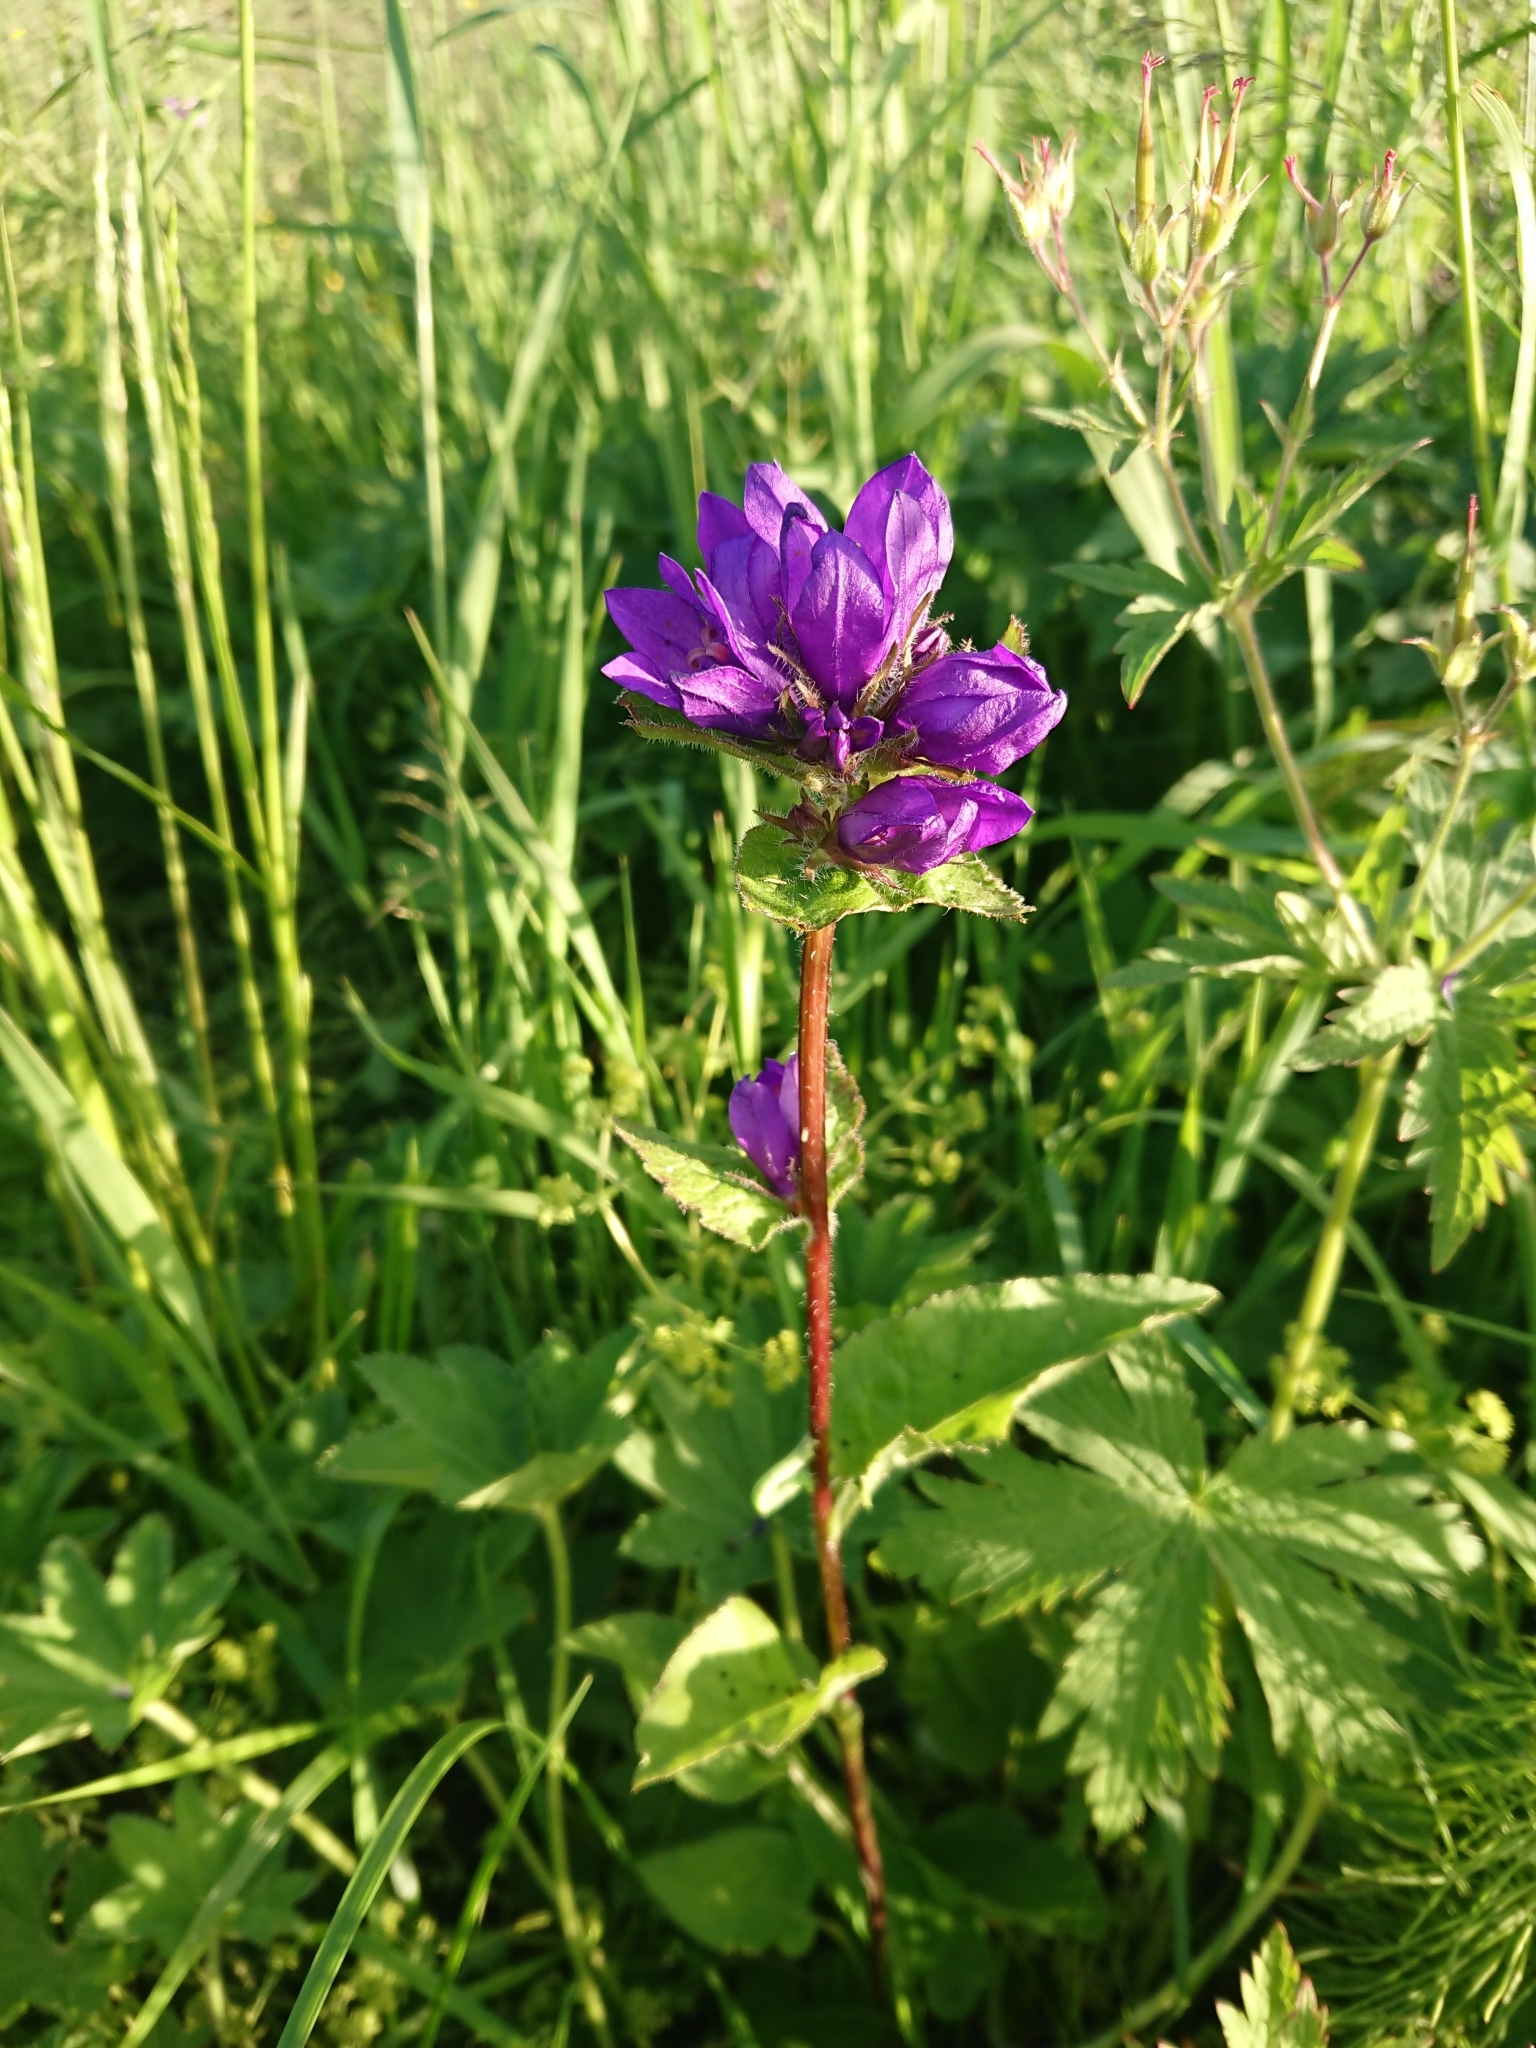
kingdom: Plantae
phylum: Tracheophyta
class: Magnoliopsida
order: Asterales
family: Campanulaceae
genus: Campanula
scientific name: Campanula glomerata
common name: Clustered bellflower
